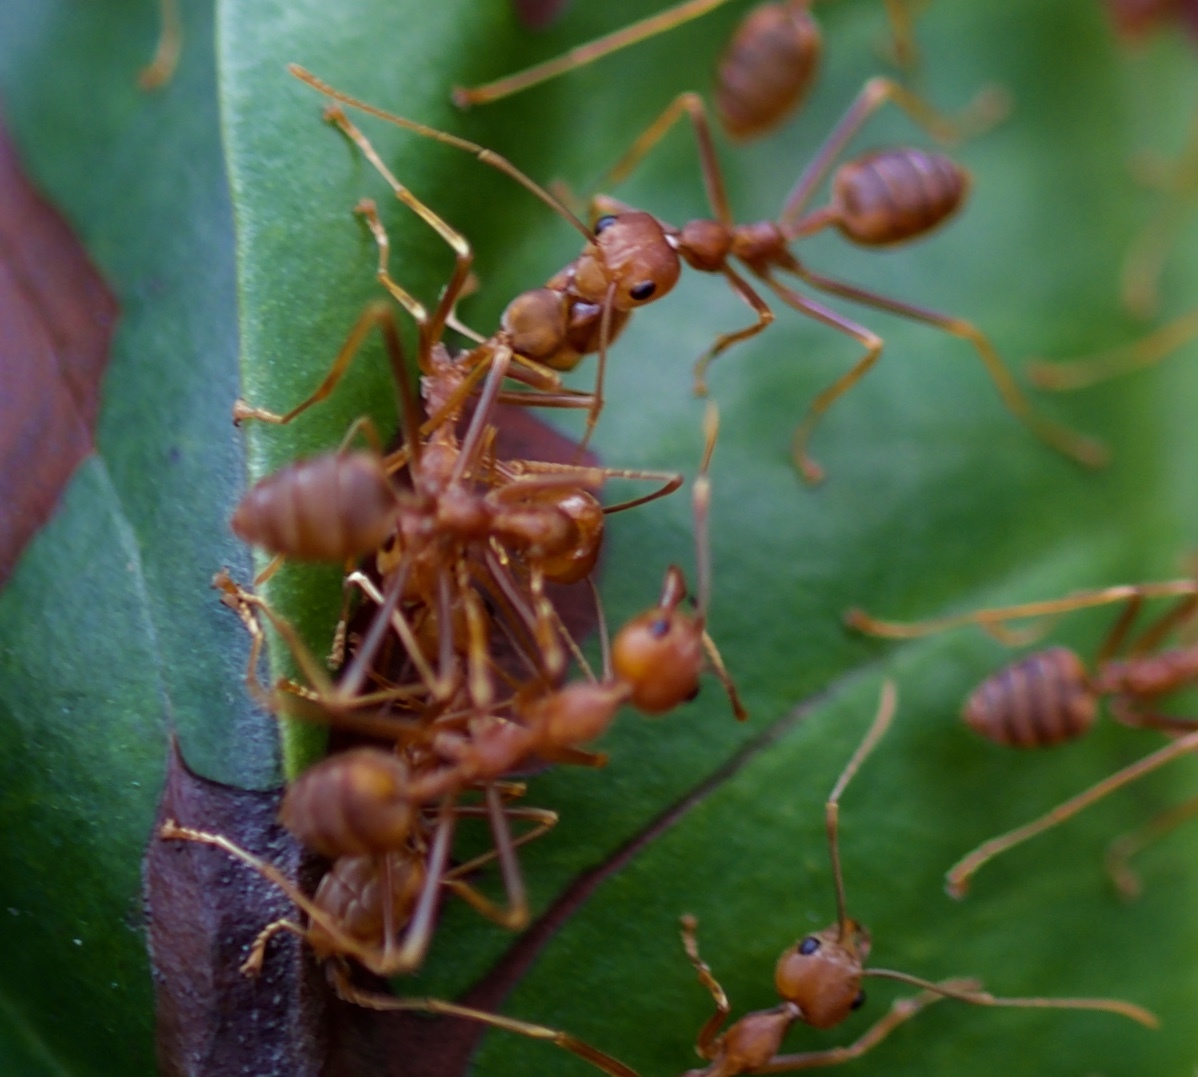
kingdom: Animalia
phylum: Arthropoda
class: Insecta
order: Hymenoptera
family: Formicidae
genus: Oecophylla
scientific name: Oecophylla smaragdina
